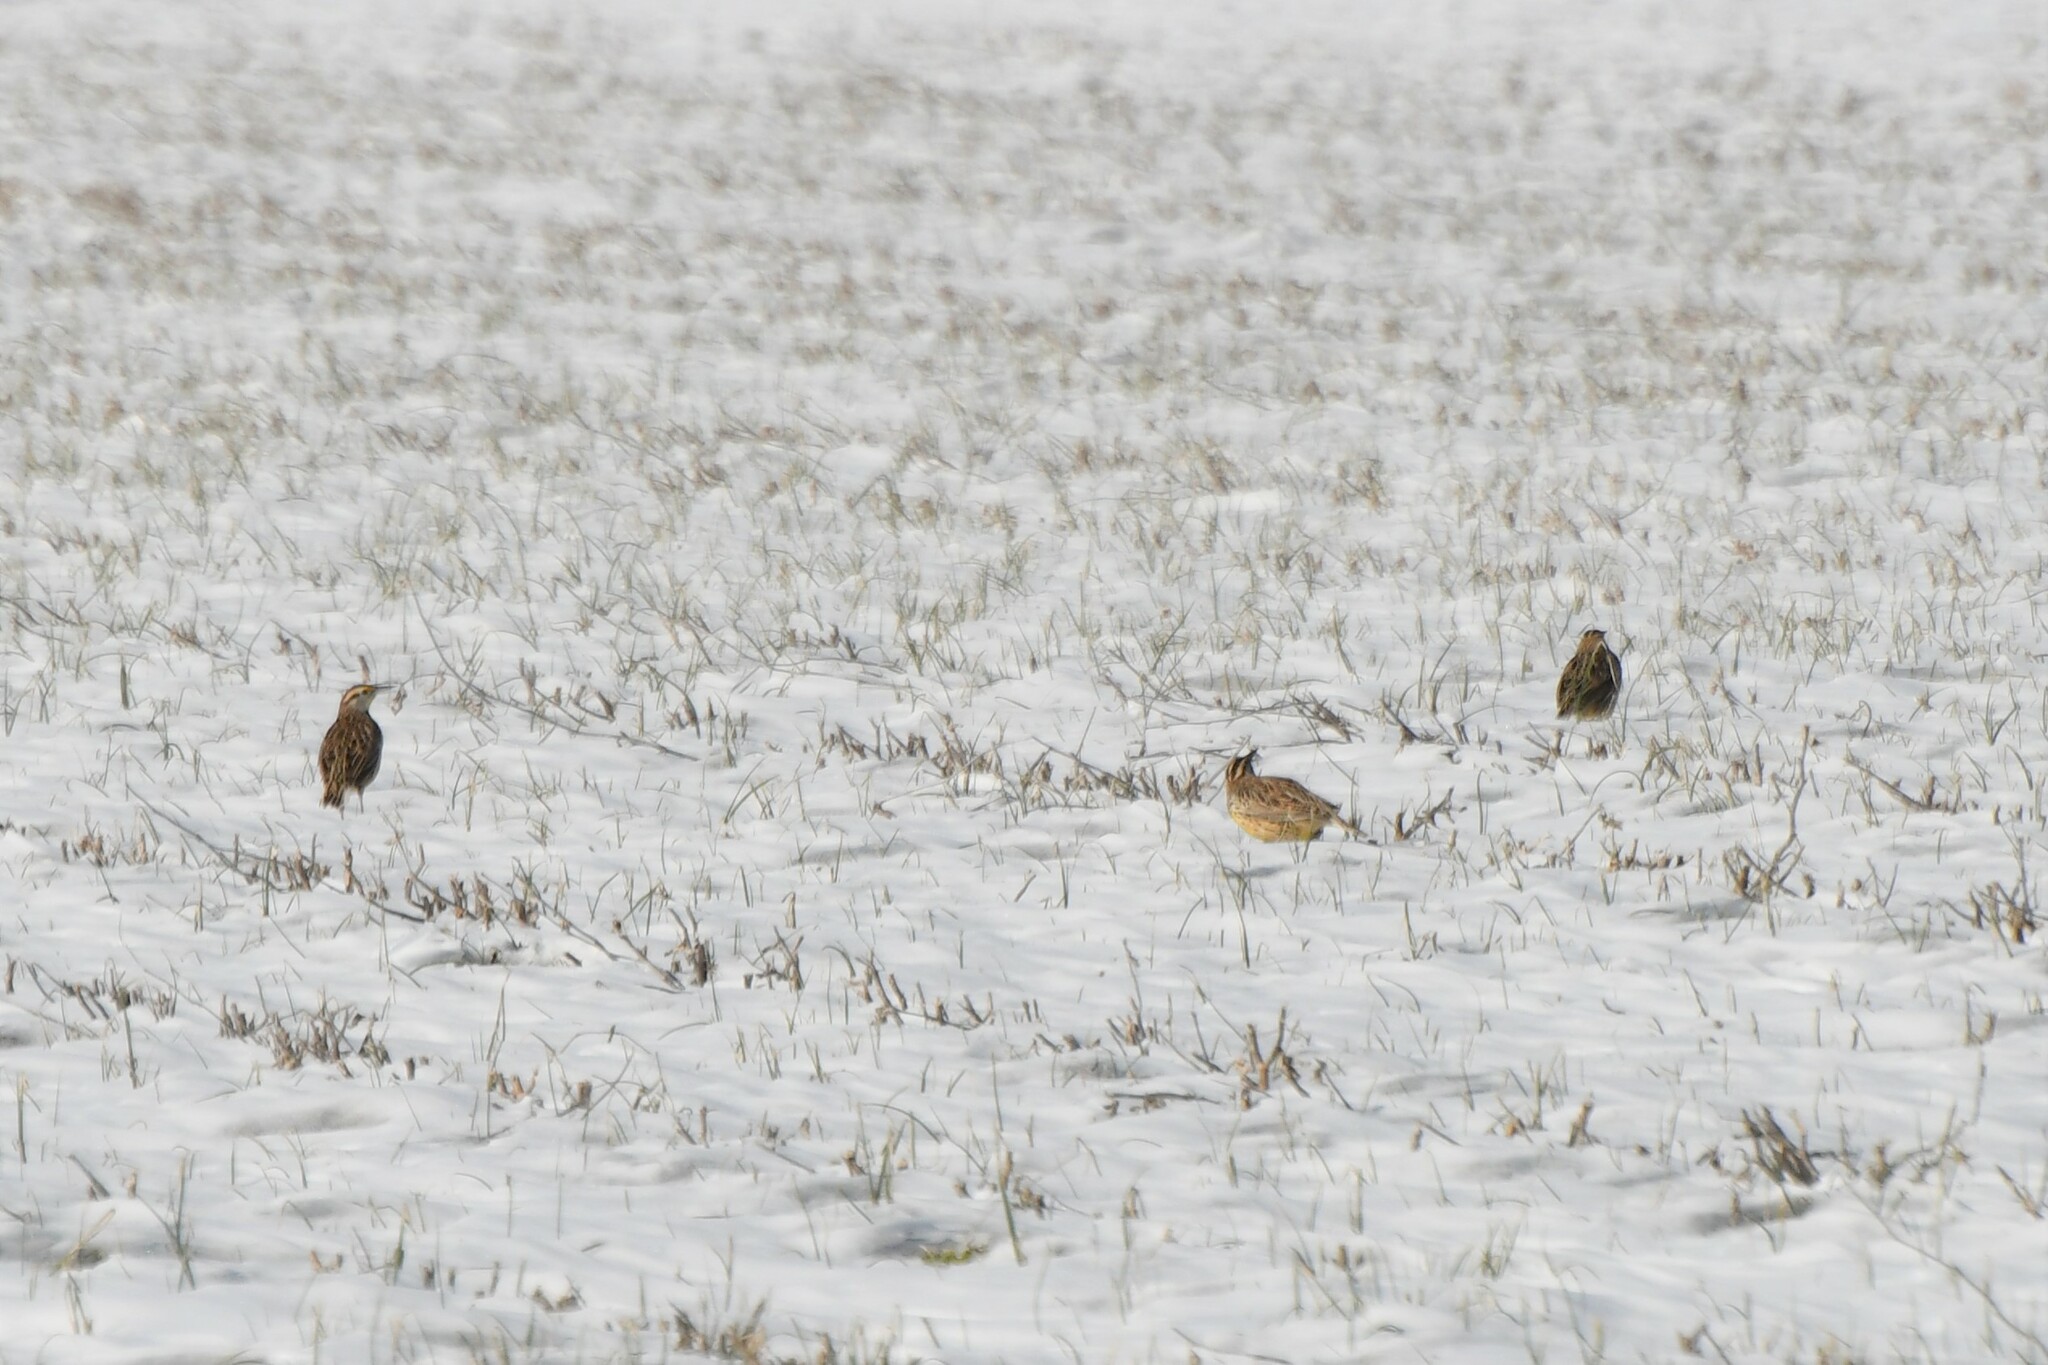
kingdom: Animalia
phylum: Chordata
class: Aves
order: Passeriformes
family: Icteridae
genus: Sturnella
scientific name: Sturnella magna
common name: Eastern meadowlark
